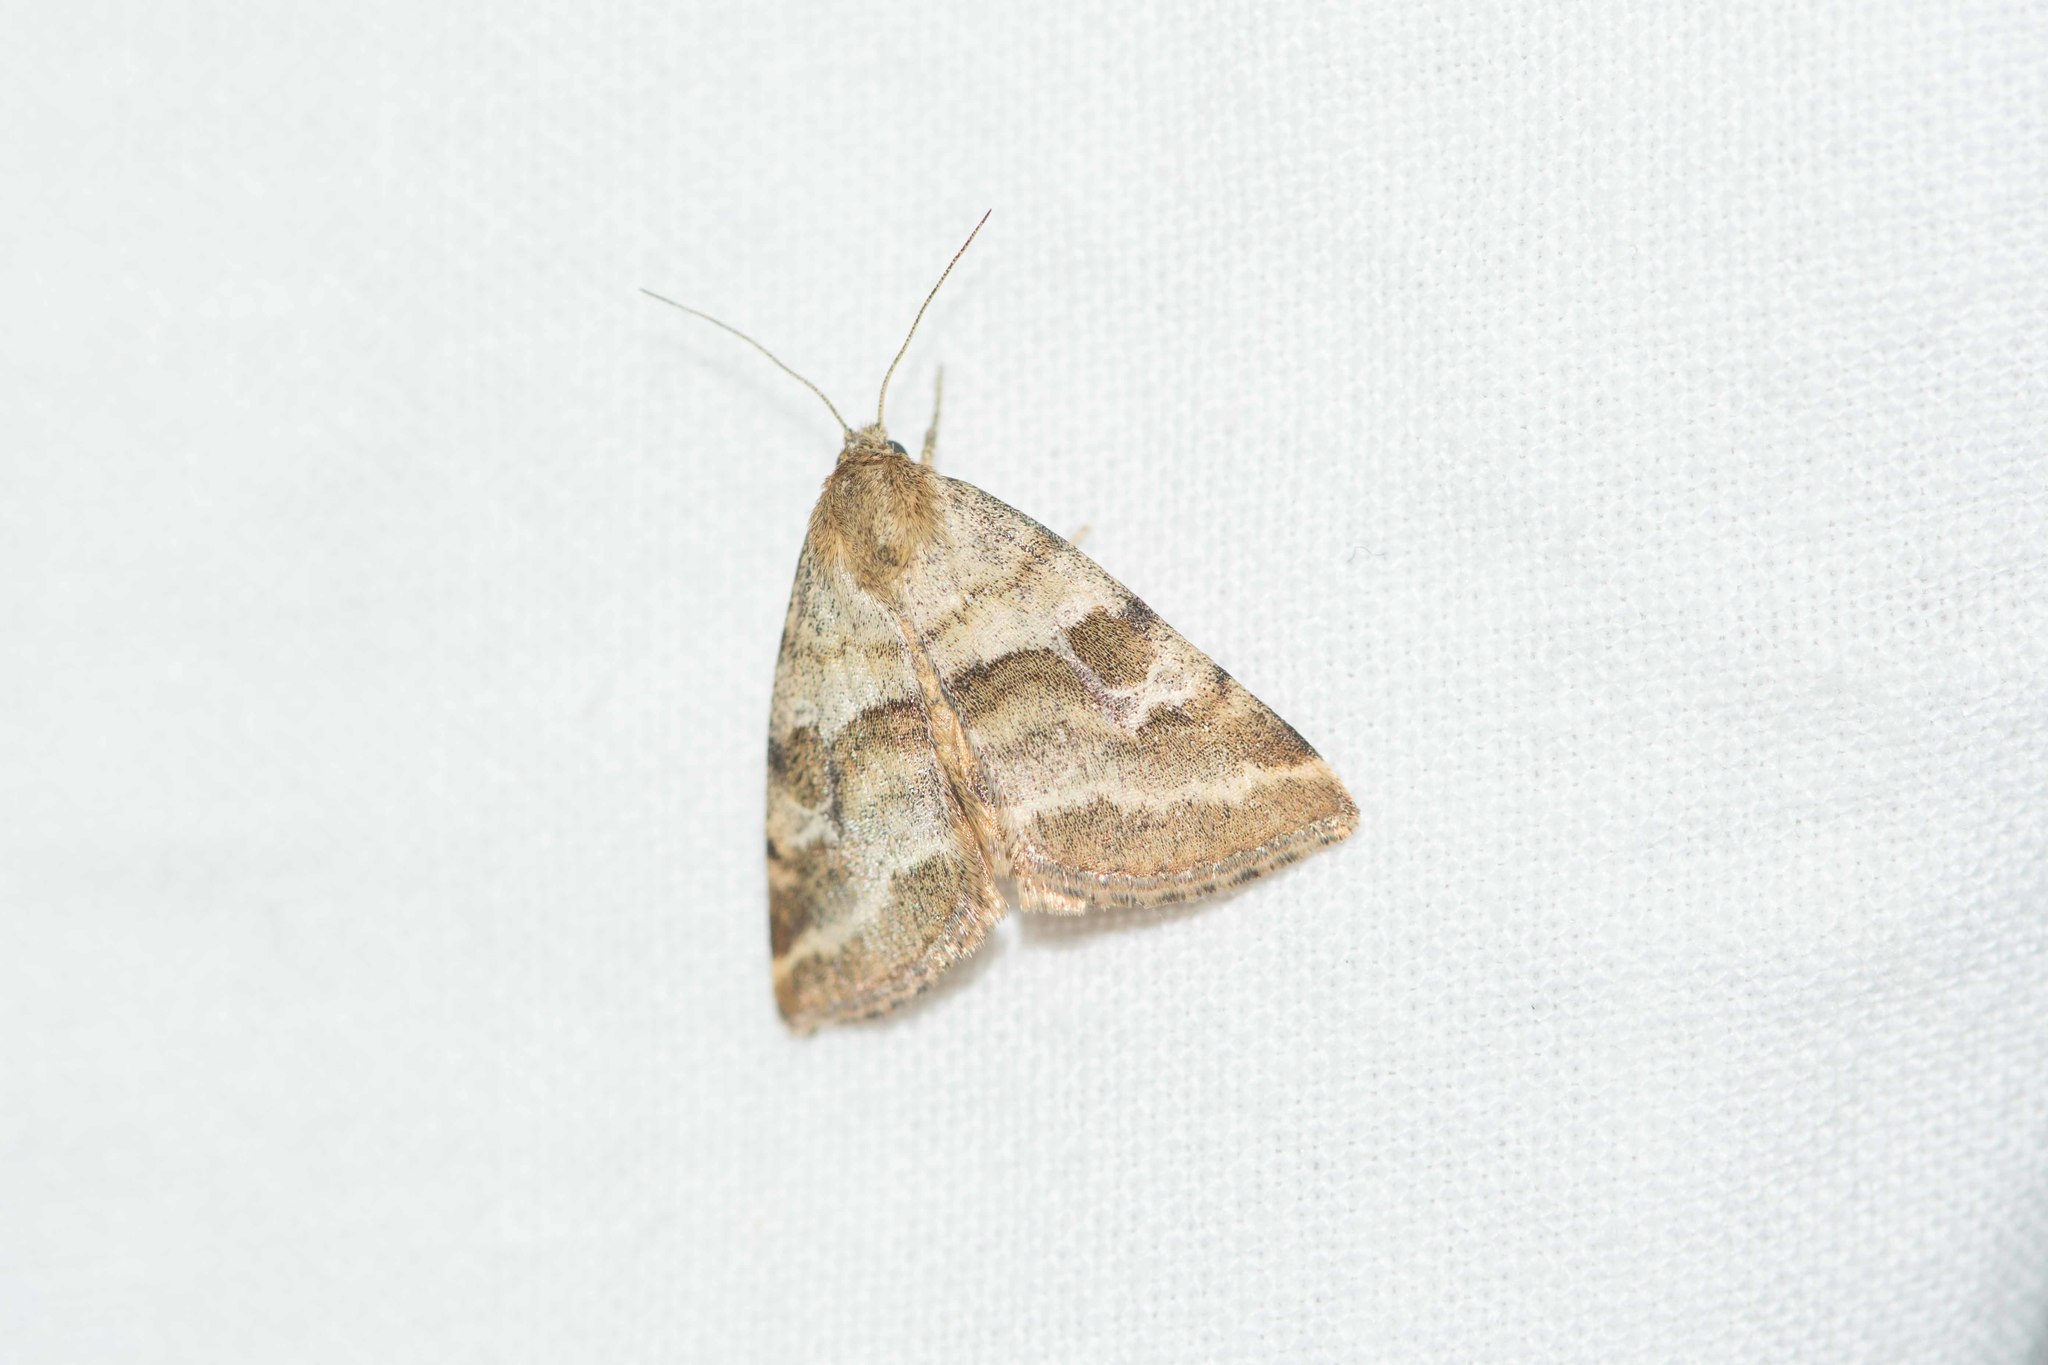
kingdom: Animalia
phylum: Arthropoda
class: Insecta
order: Lepidoptera
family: Noctuidae
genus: Synthymia
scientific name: Synthymia fixa
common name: Goldwing
